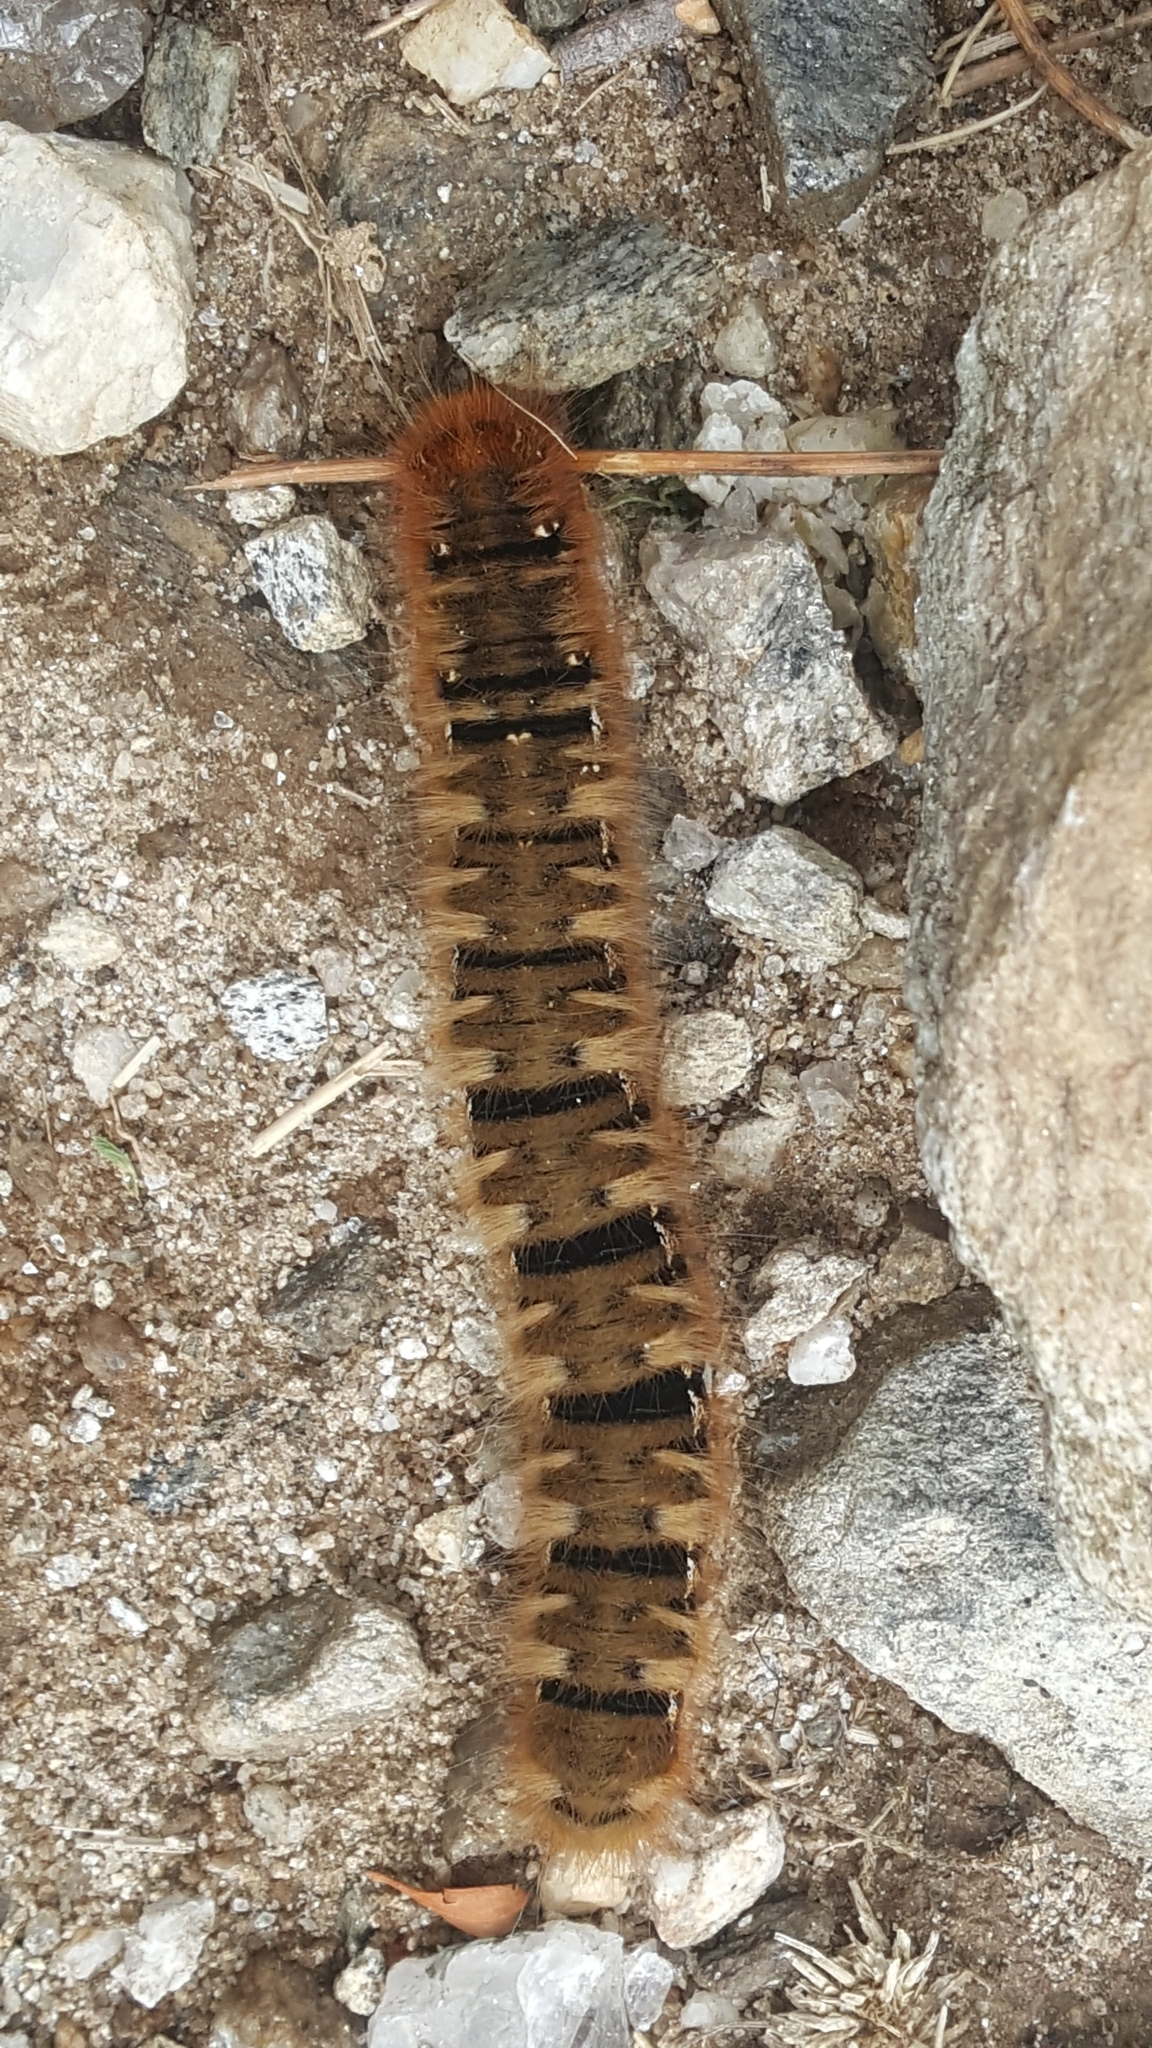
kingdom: Animalia
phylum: Arthropoda
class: Insecta
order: Lepidoptera
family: Lasiocampidae
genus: Lasiocampa
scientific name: Lasiocampa quercus
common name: Oak eggar
